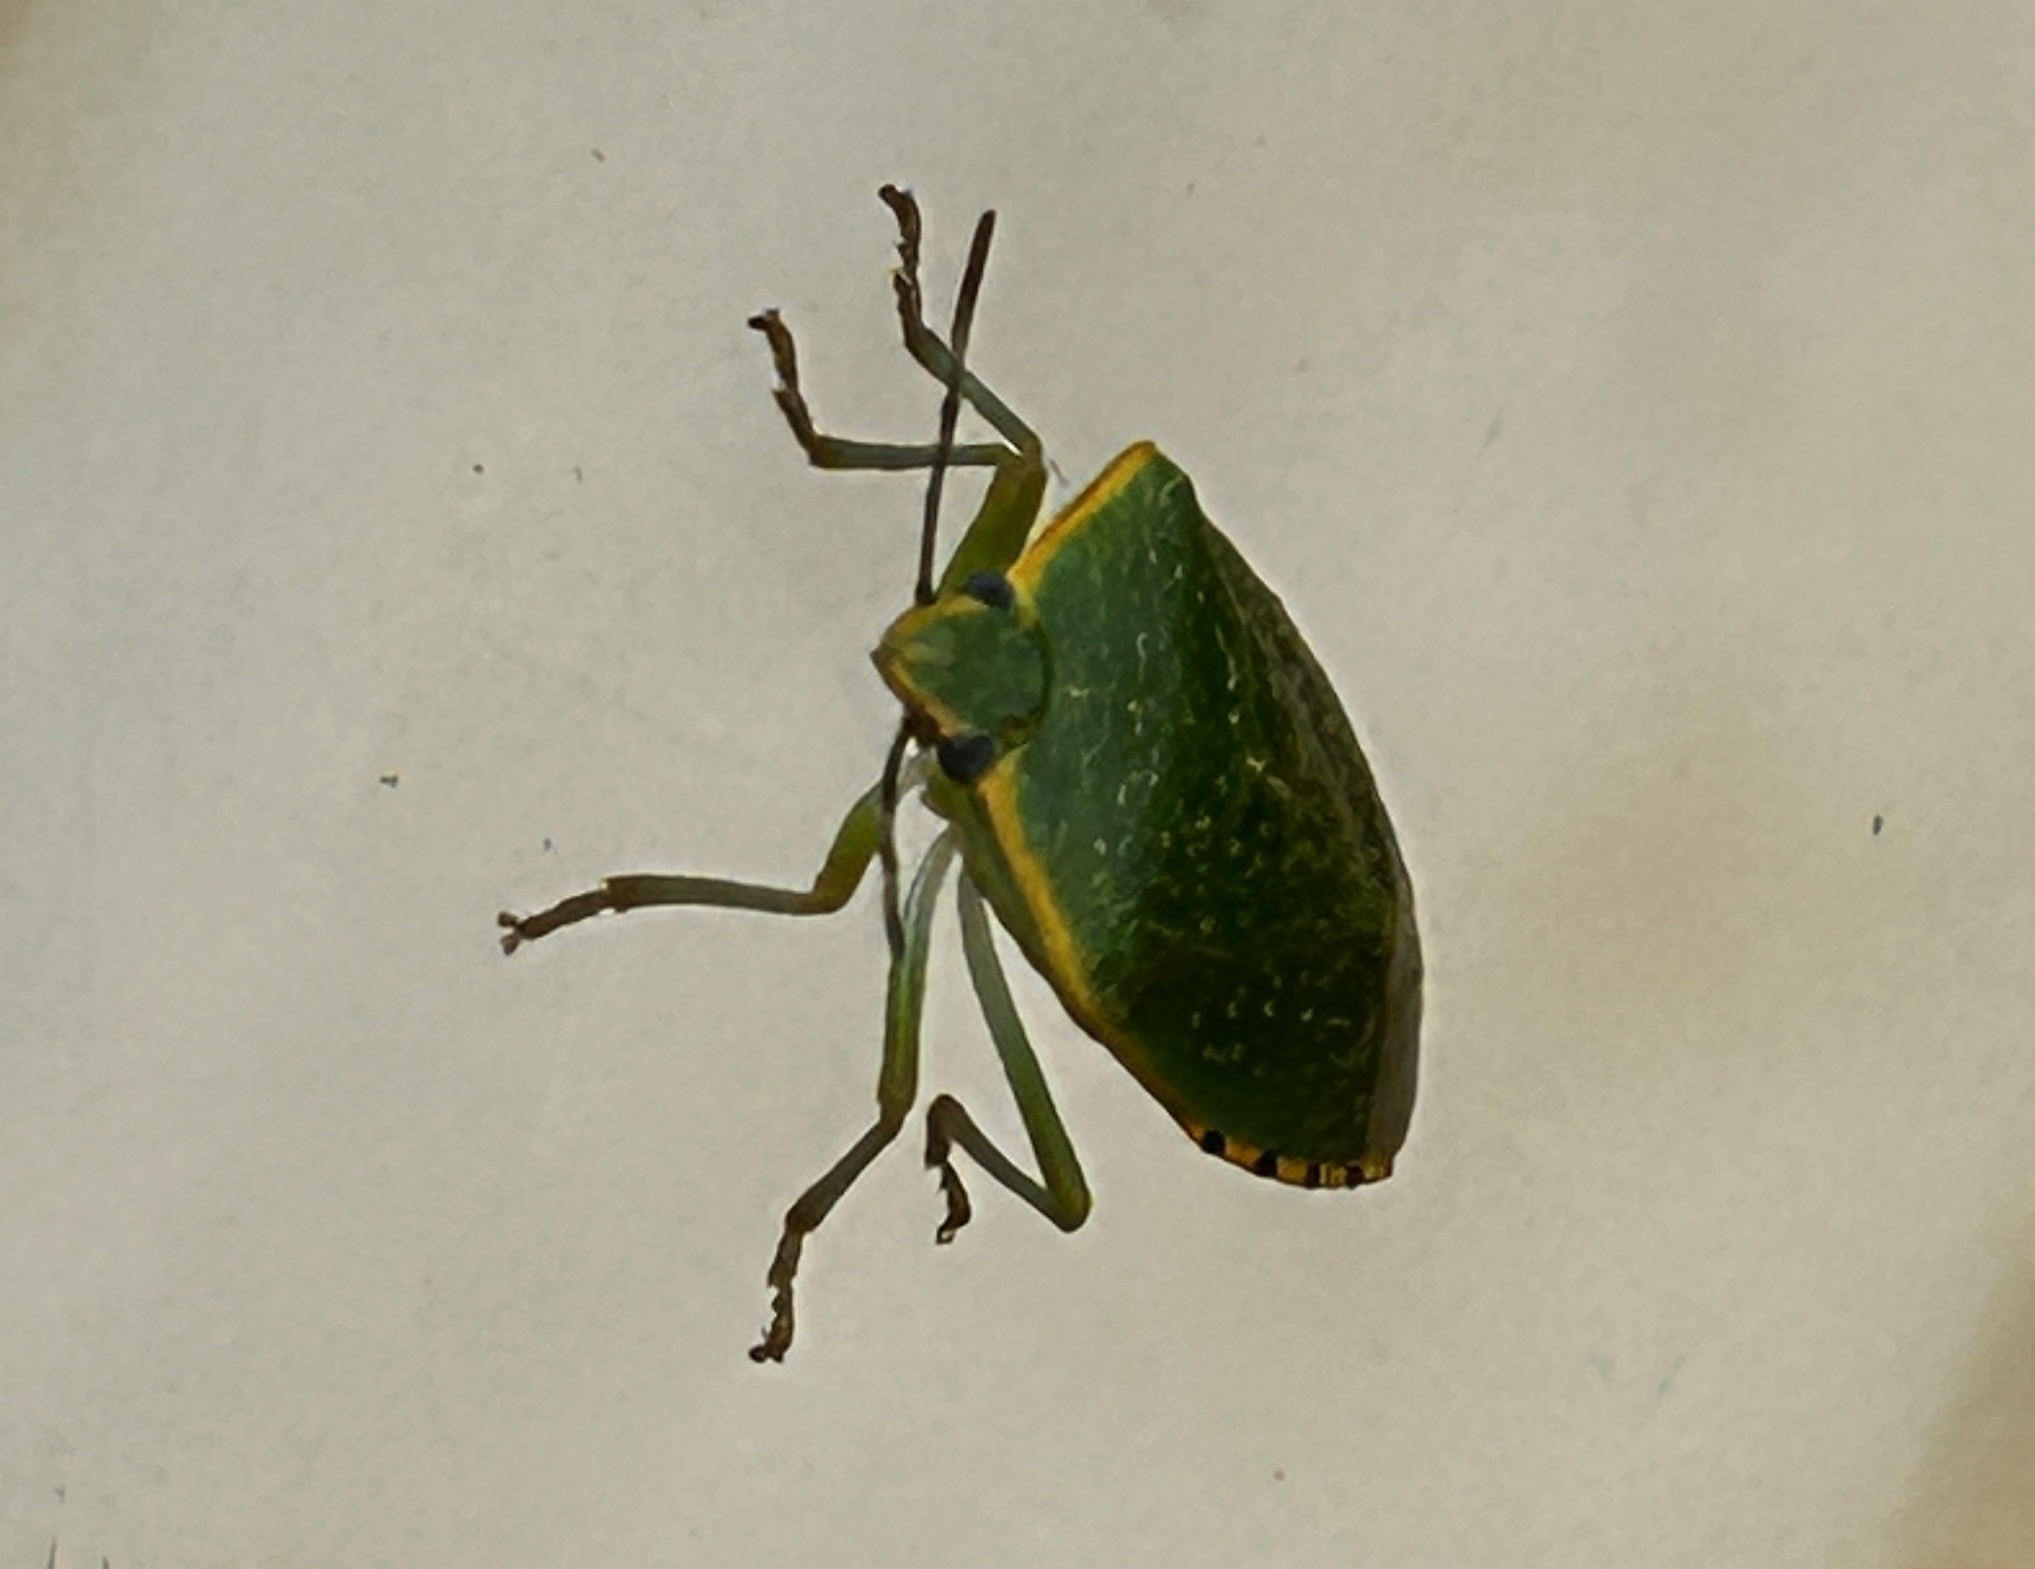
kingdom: Animalia
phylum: Arthropoda
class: Insecta
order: Hemiptera
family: Pentatomidae
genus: Chinavia
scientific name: Chinavia
